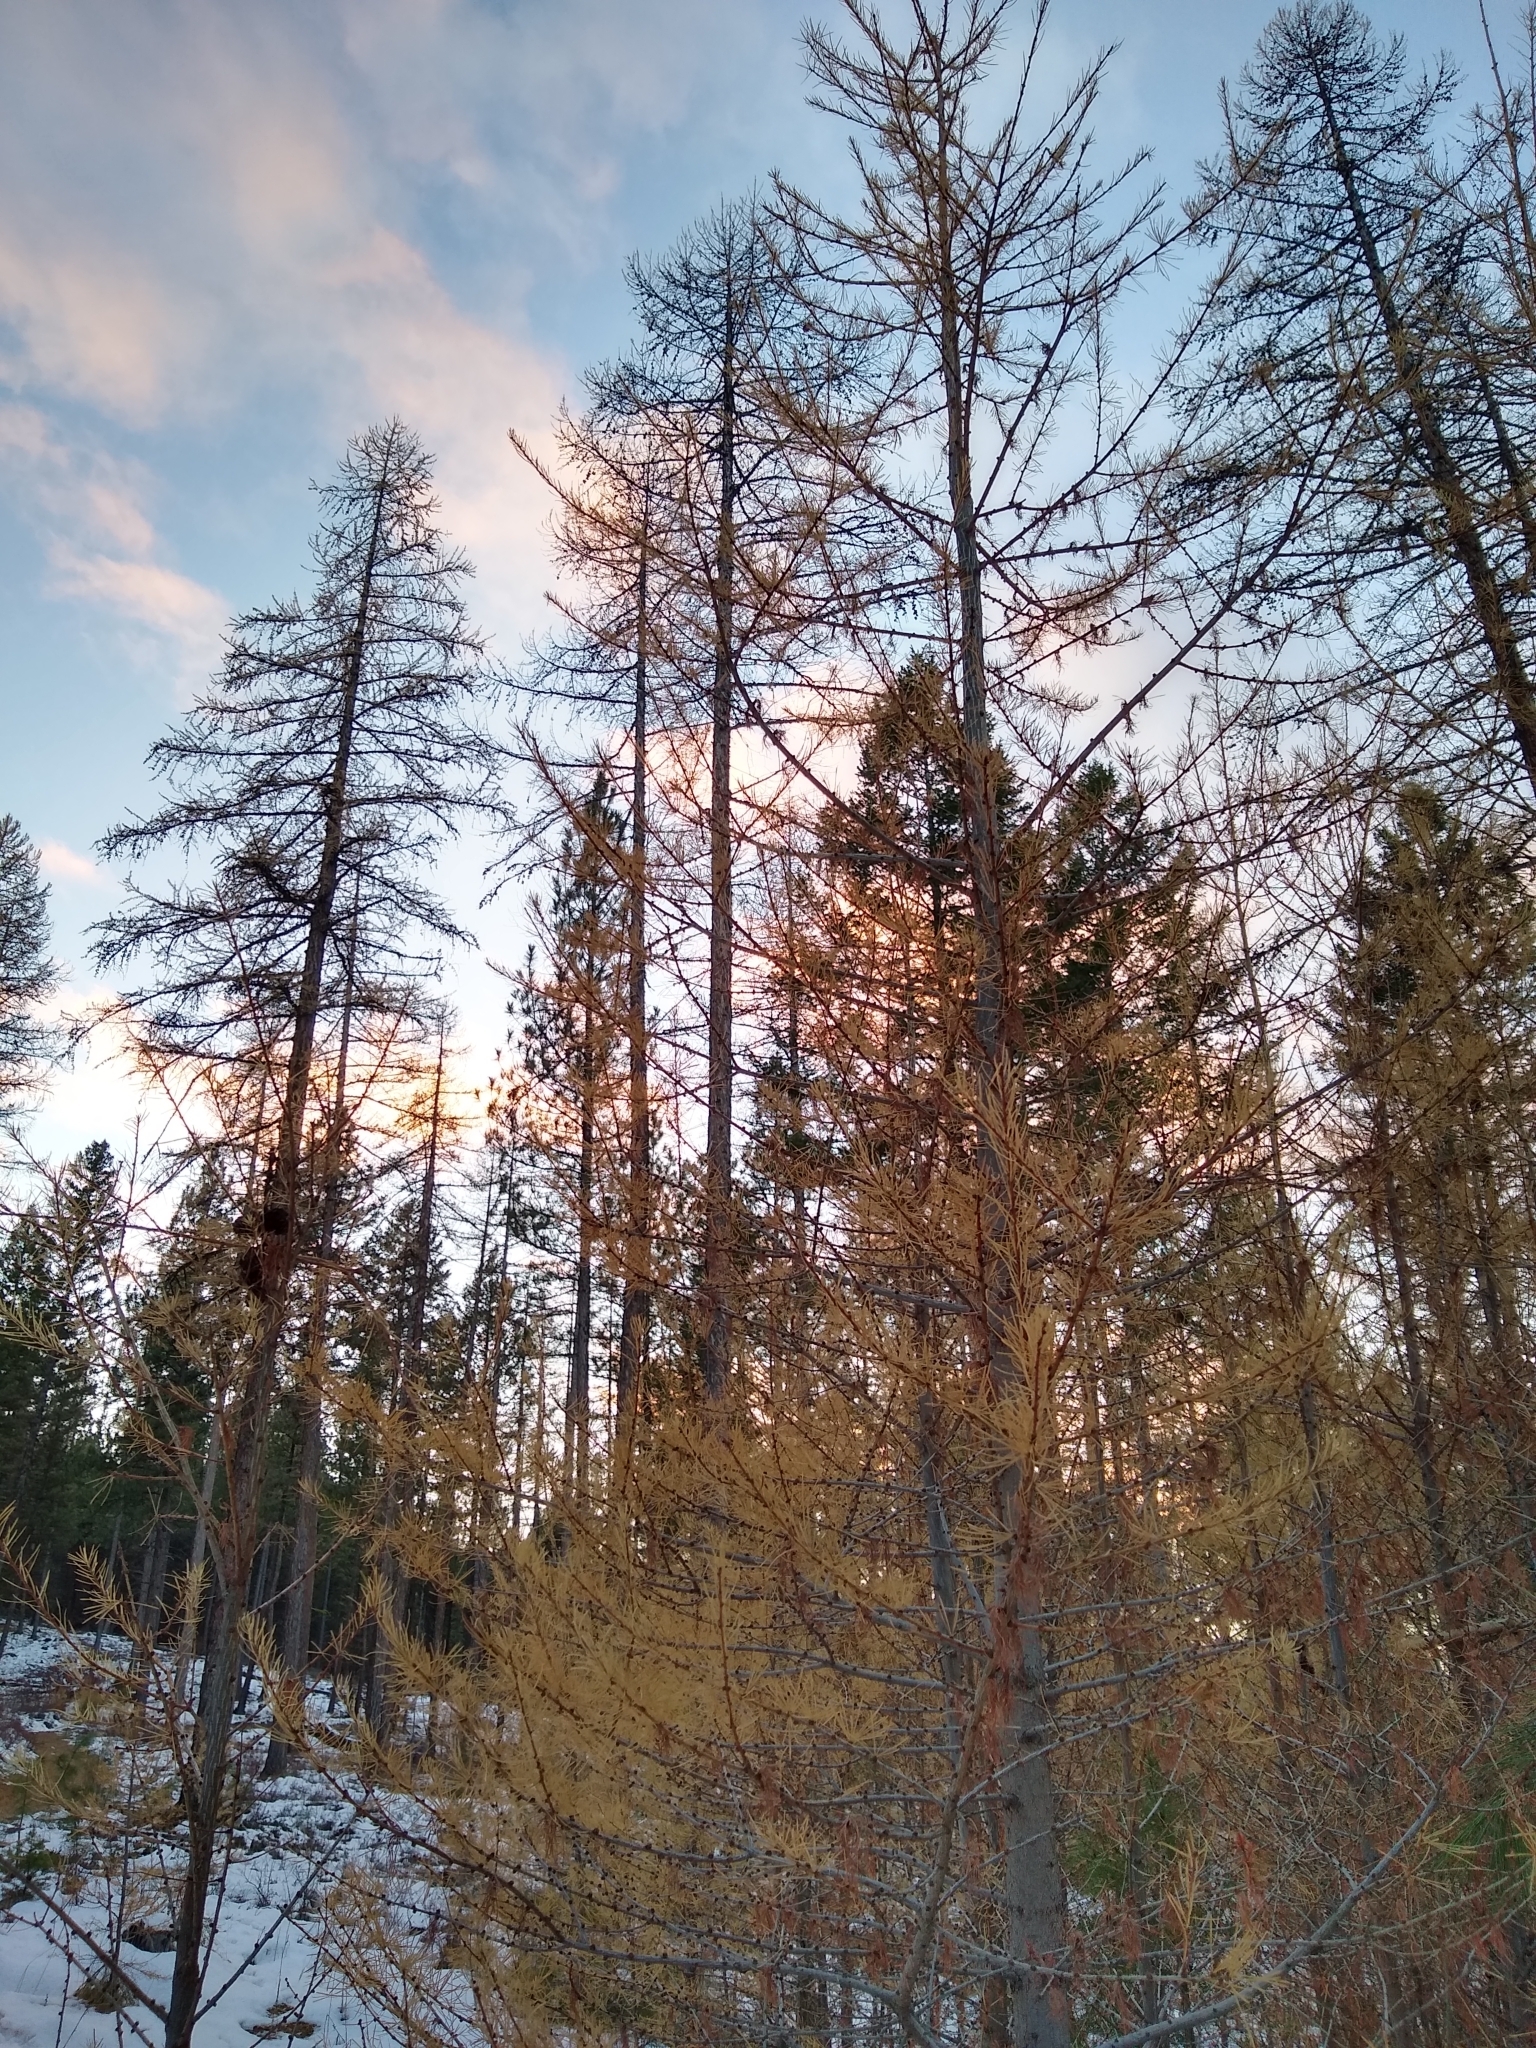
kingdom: Plantae
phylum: Tracheophyta
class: Pinopsida
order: Pinales
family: Pinaceae
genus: Larix
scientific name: Larix occidentalis
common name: Western larch
